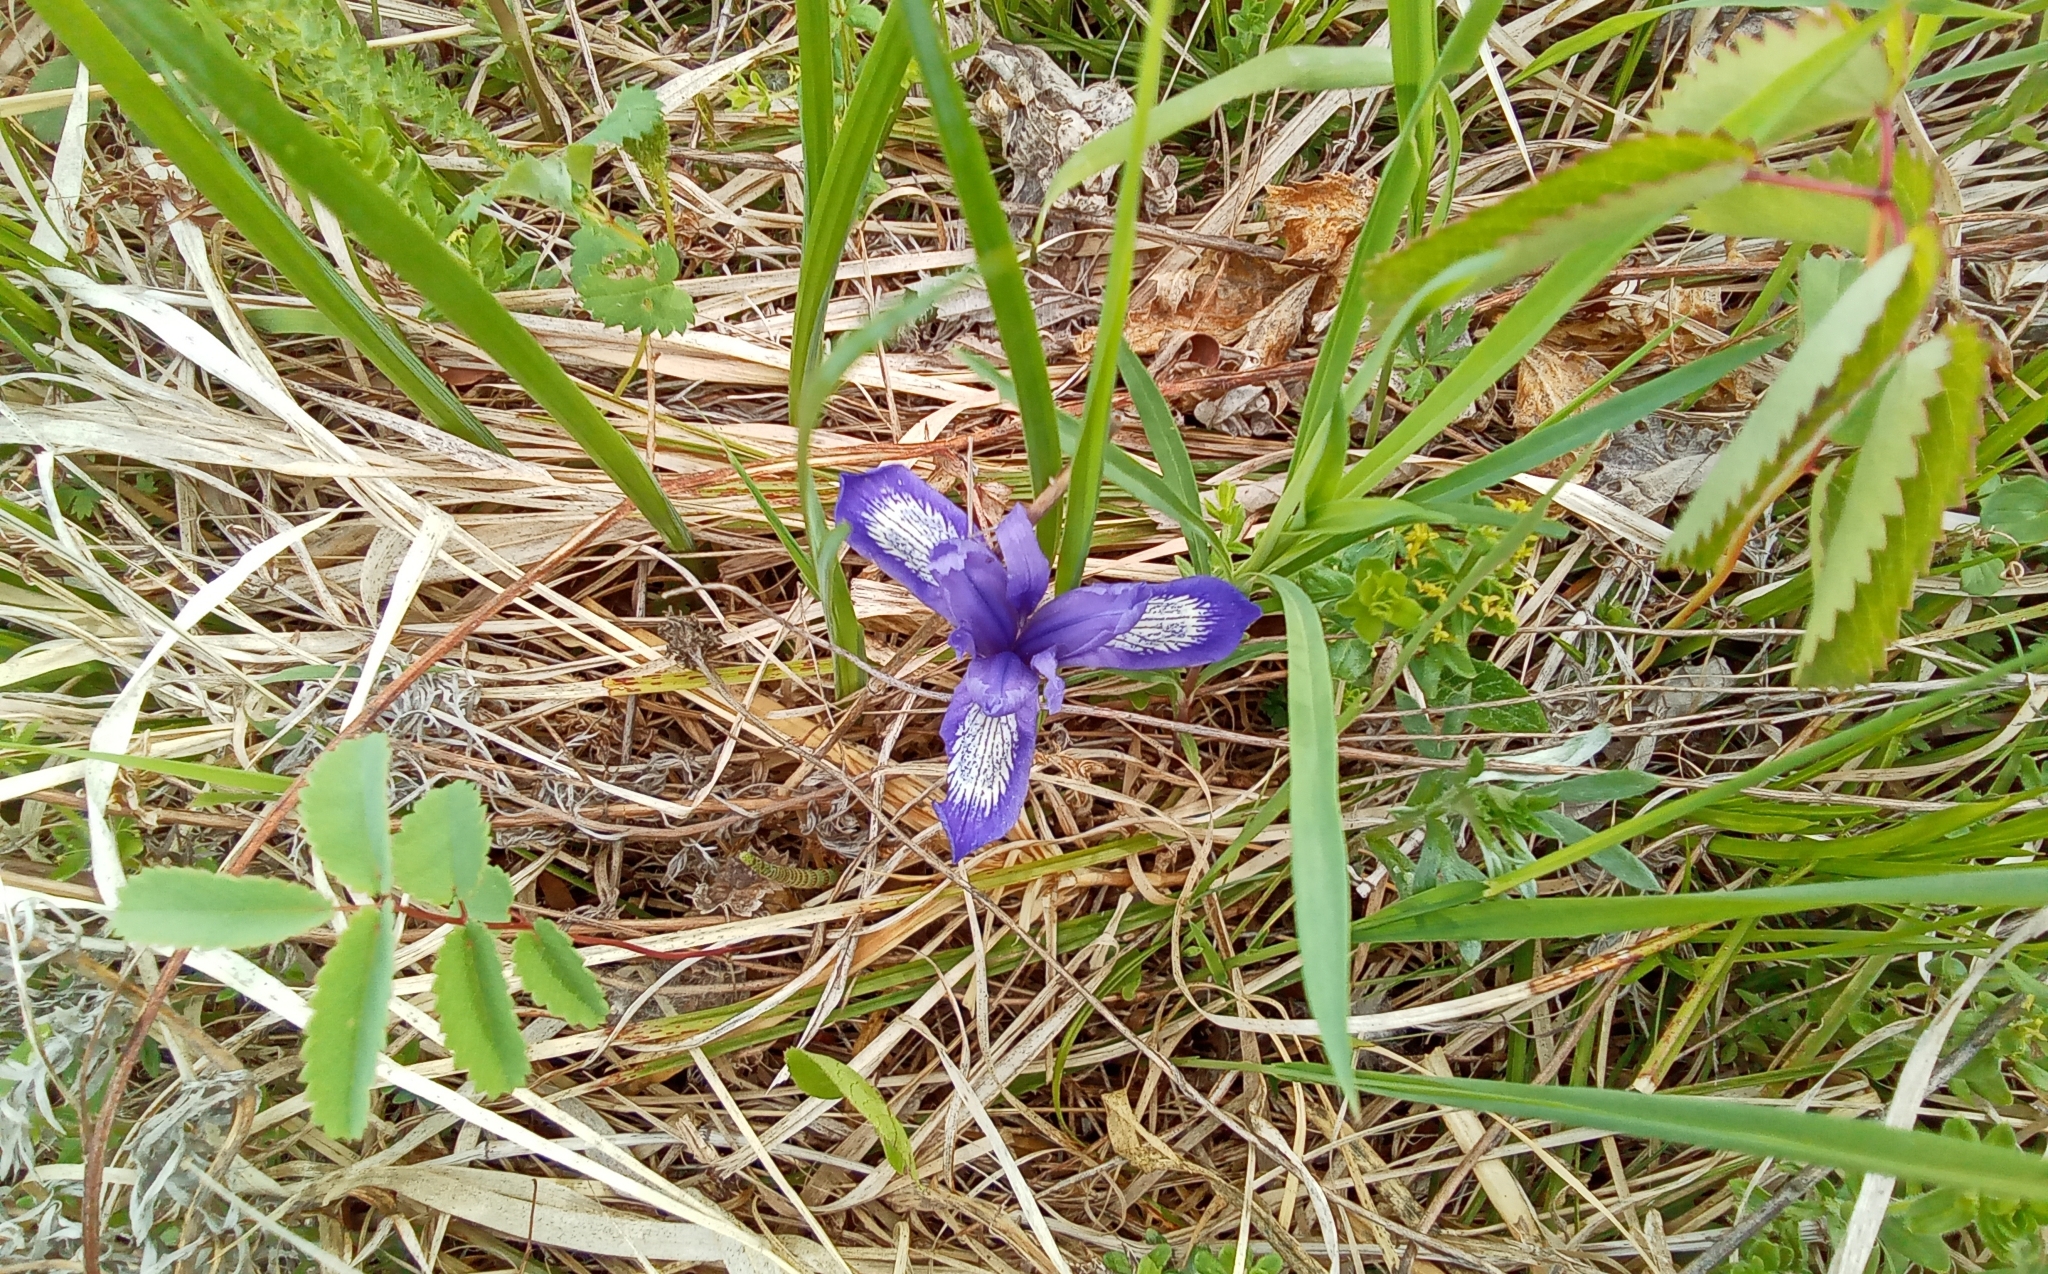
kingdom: Plantae
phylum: Tracheophyta
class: Liliopsida
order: Asparagales
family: Iridaceae
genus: Iris
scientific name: Iris ruthenica
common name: Purple-bract iris
